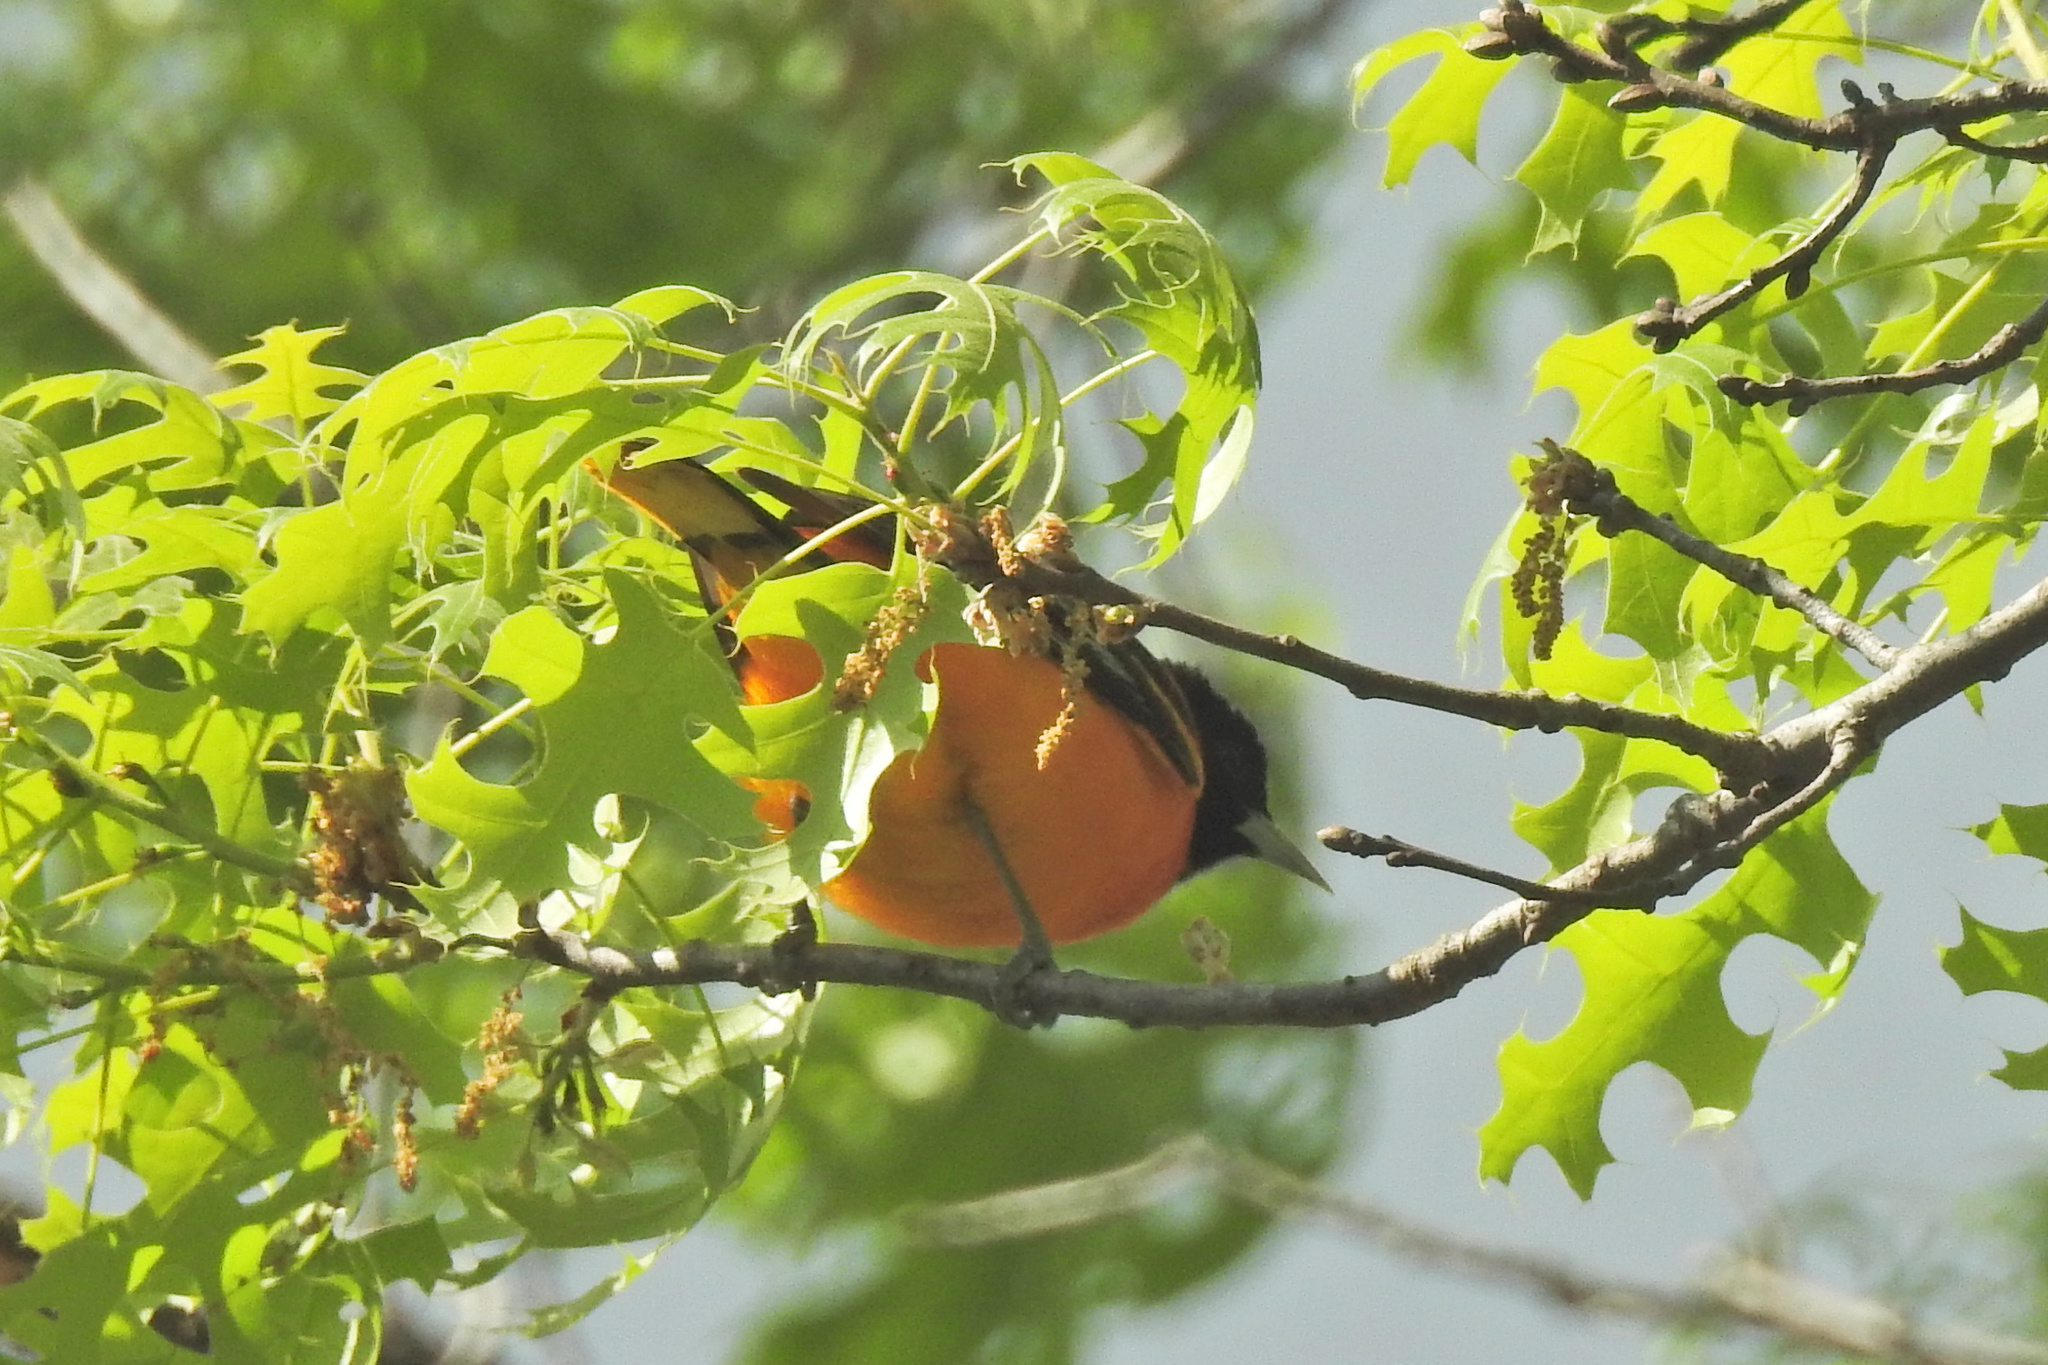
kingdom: Animalia
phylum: Chordata
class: Aves
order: Passeriformes
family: Icteridae
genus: Icterus
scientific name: Icterus galbula
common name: Baltimore oriole
